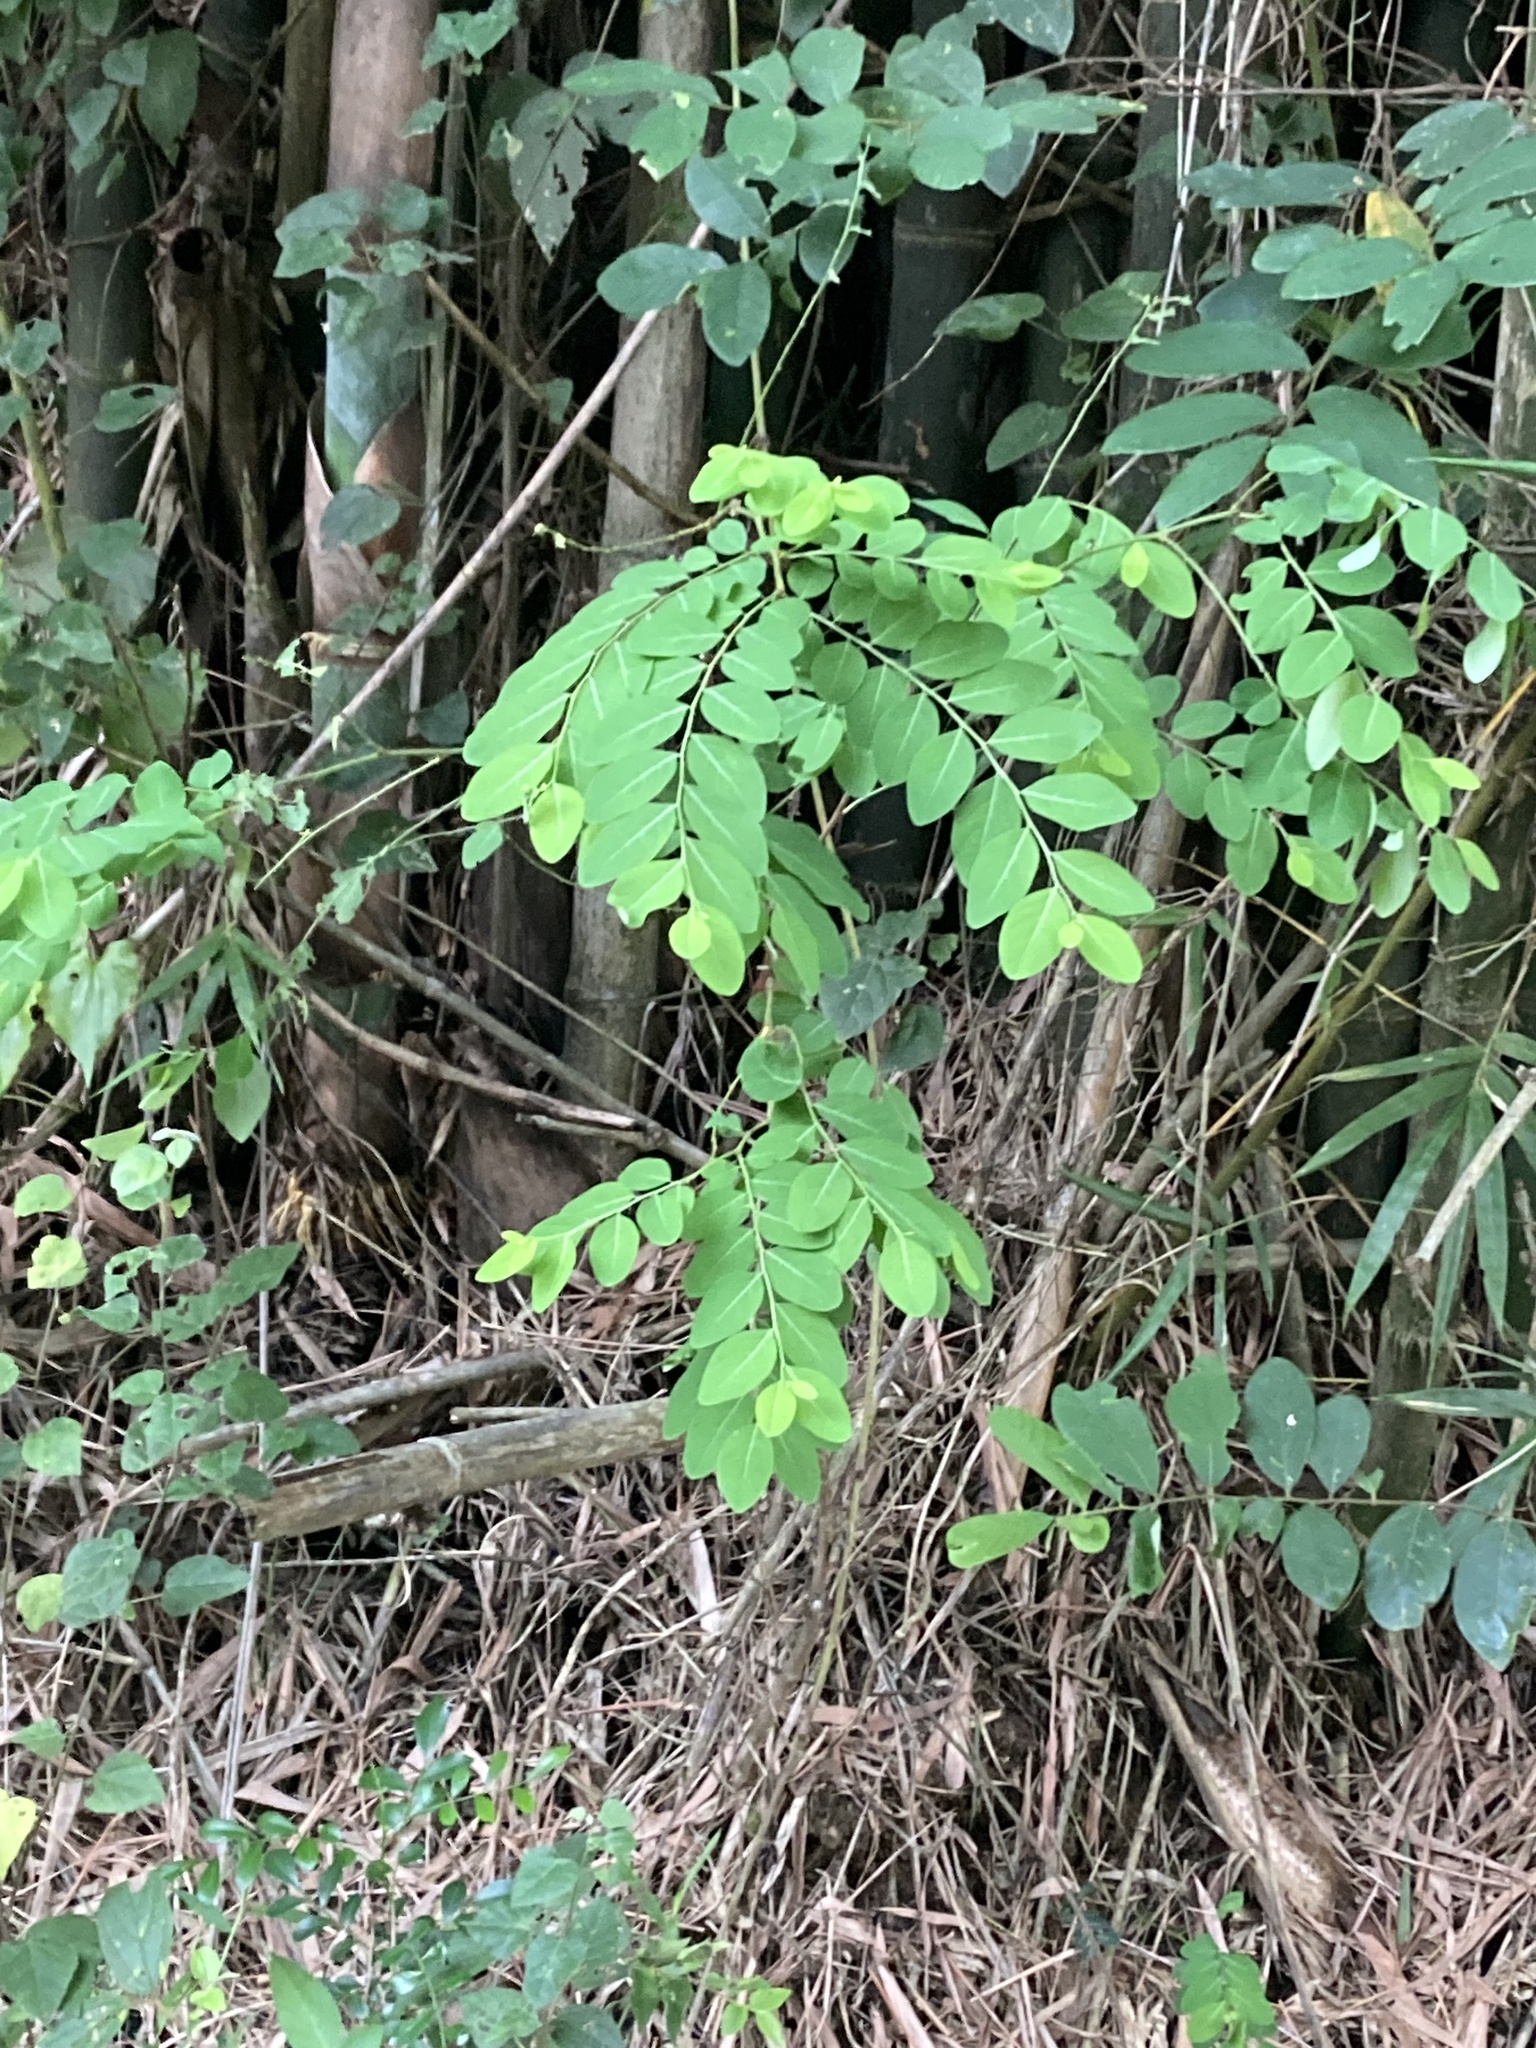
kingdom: Plantae
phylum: Tracheophyta
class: Magnoliopsida
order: Malpighiales
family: Phyllanthaceae
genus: Breynia
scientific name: Breynia vitis-idaea
